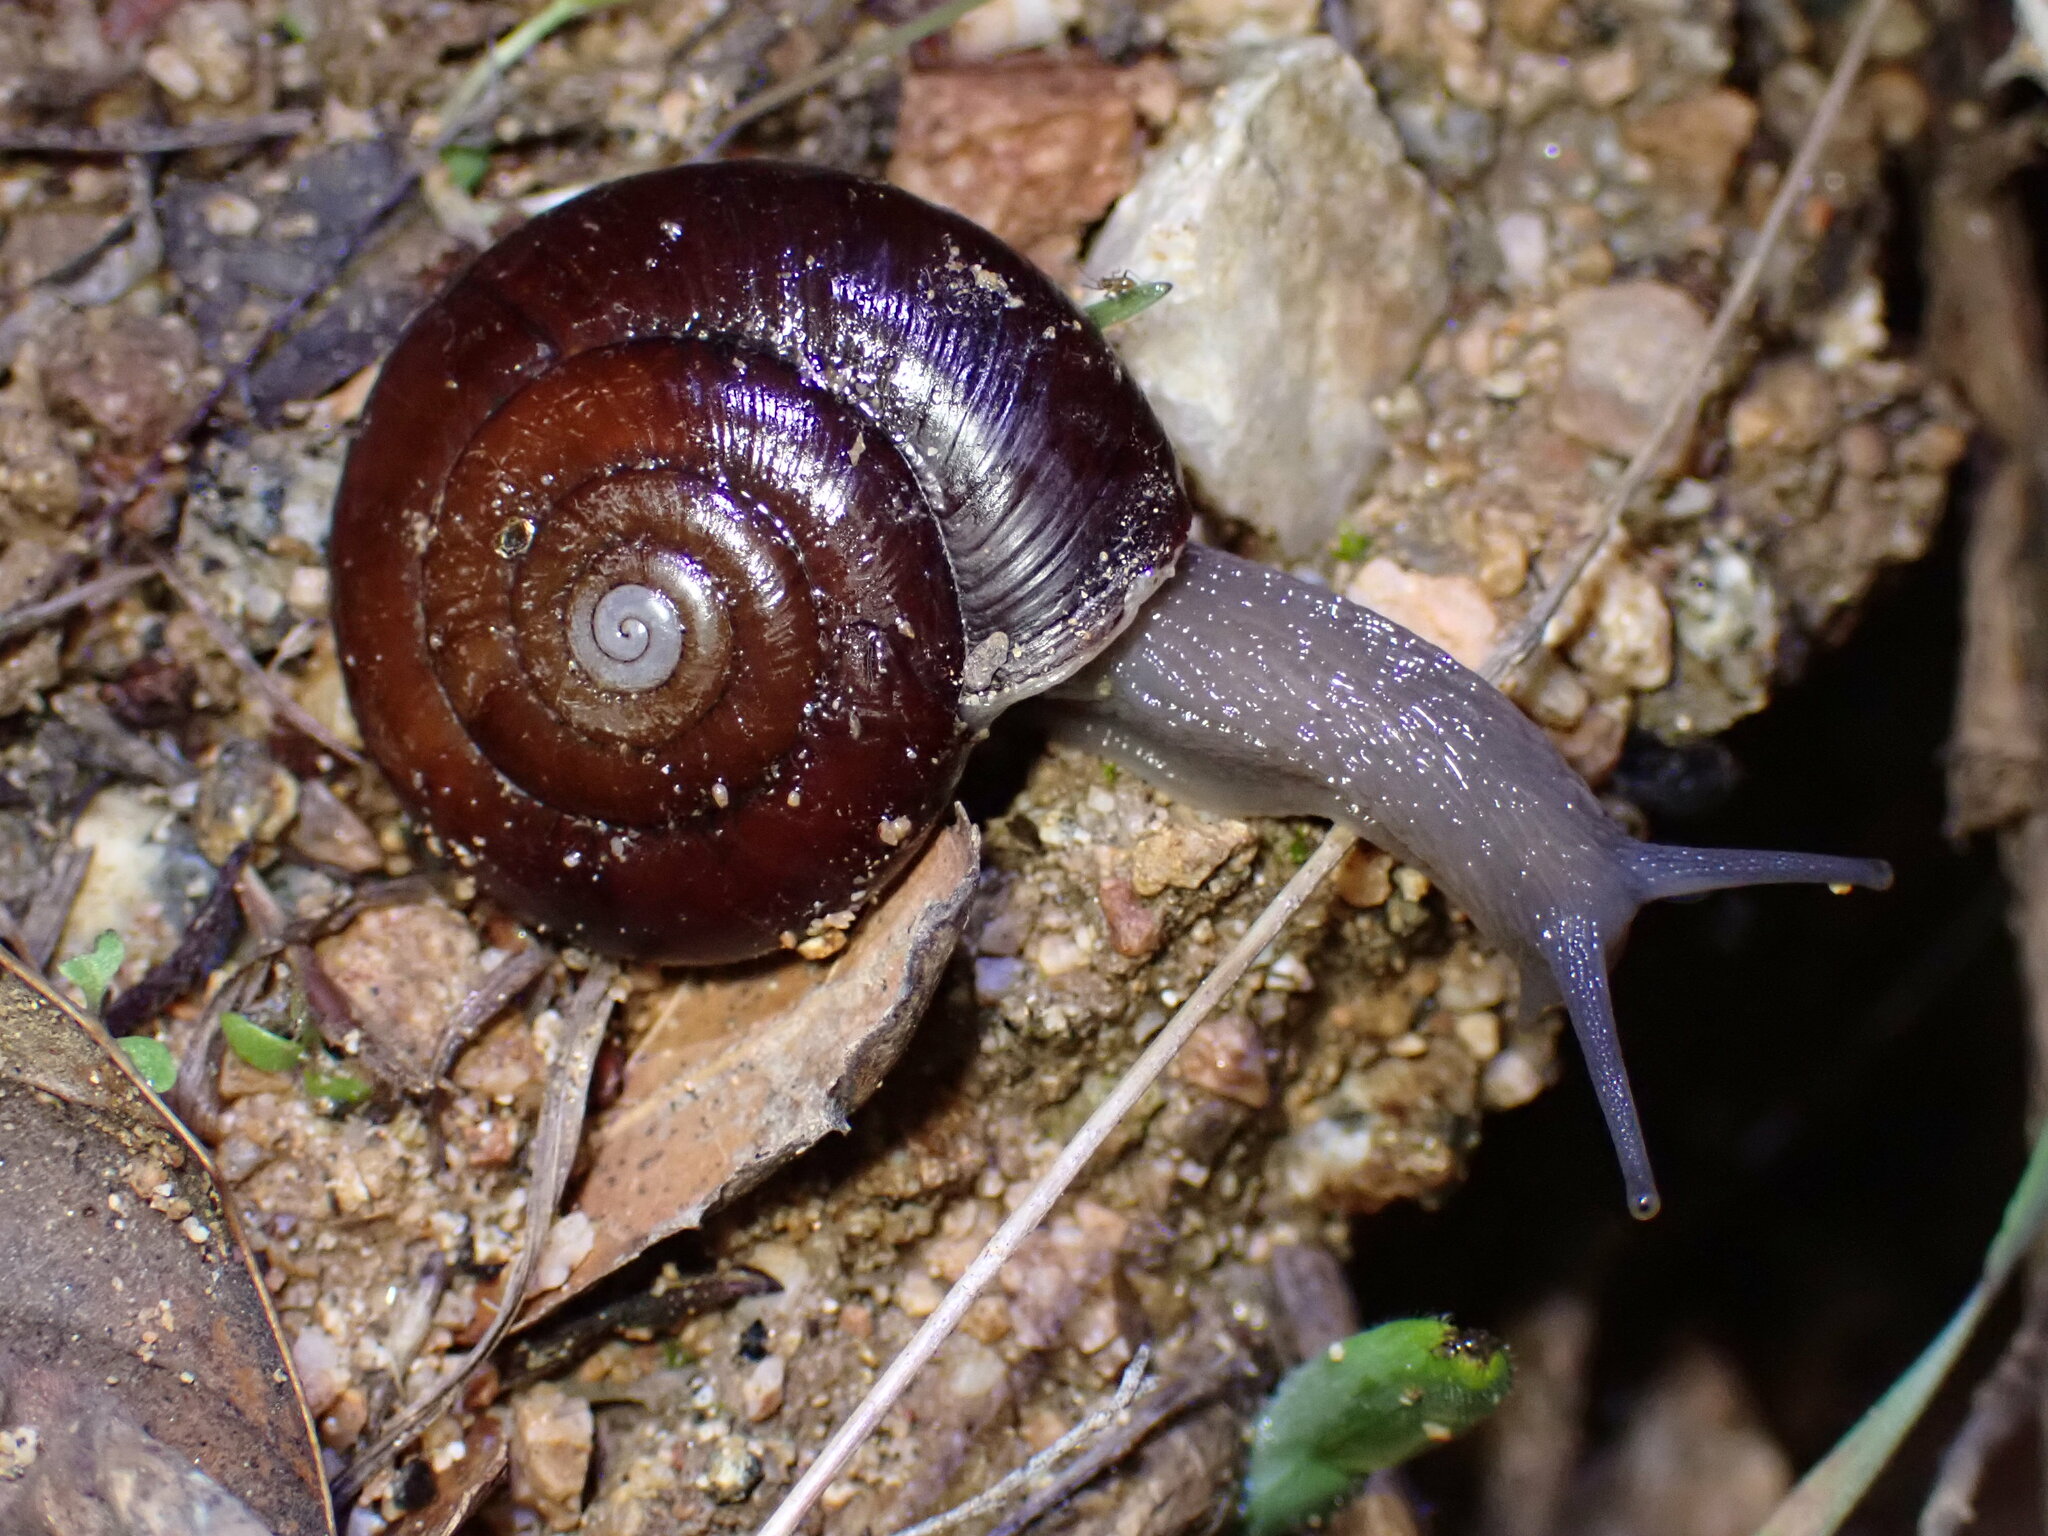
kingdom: Animalia
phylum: Mollusca
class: Gastropoda
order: Stylommatophora
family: Megomphicidae
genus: Glyptostoma
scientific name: Glyptostoma gabrielense
